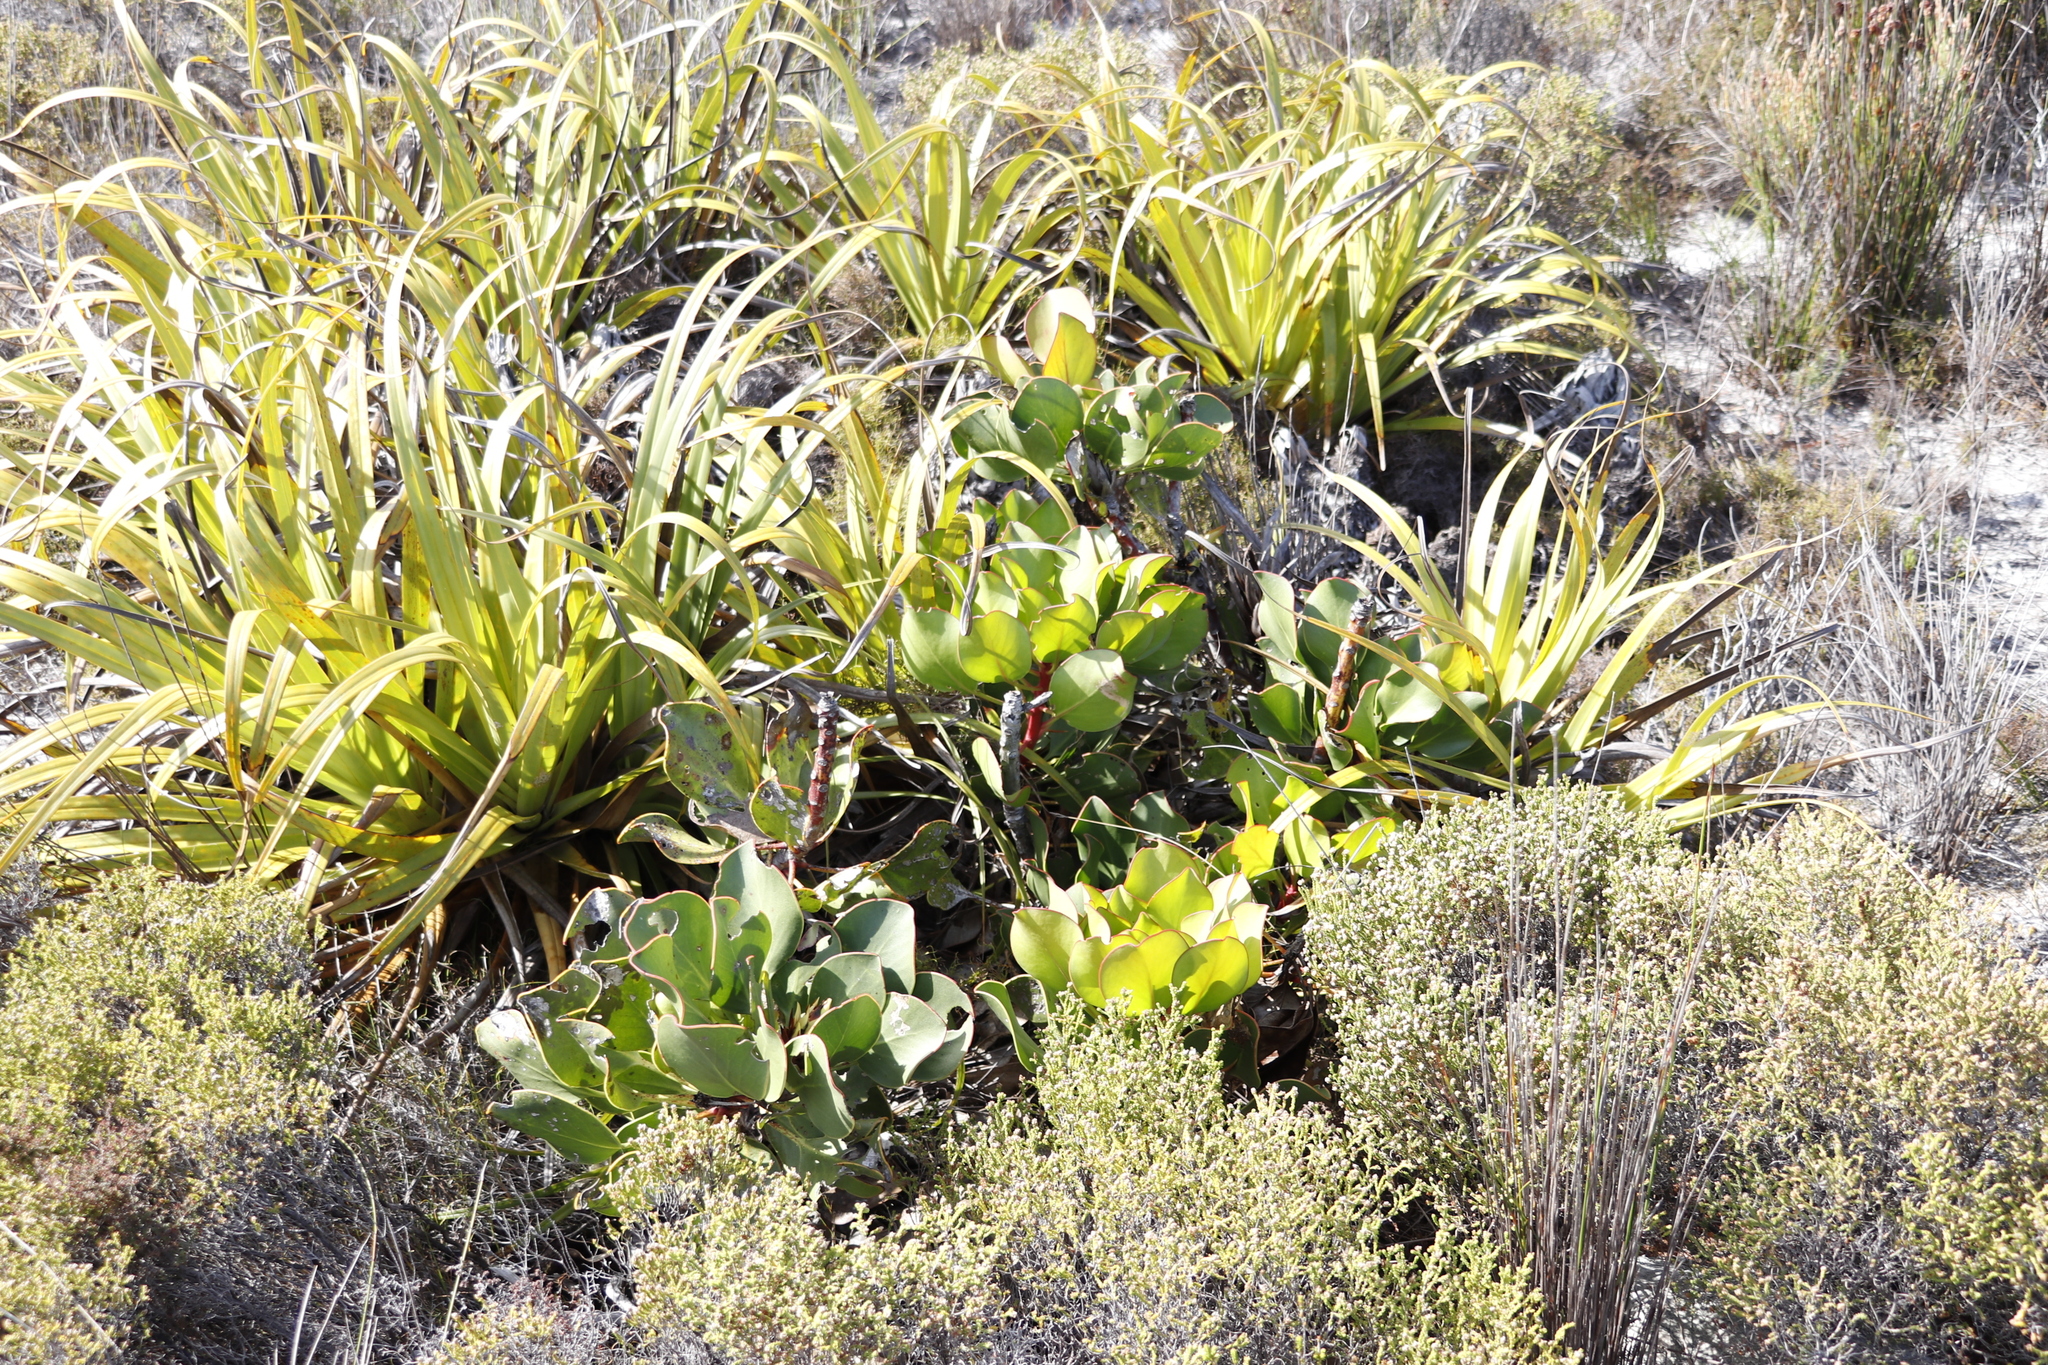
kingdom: Plantae
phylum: Tracheophyta
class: Magnoliopsida
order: Proteales
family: Proteaceae
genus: Protea
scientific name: Protea cynaroides
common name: King protea
